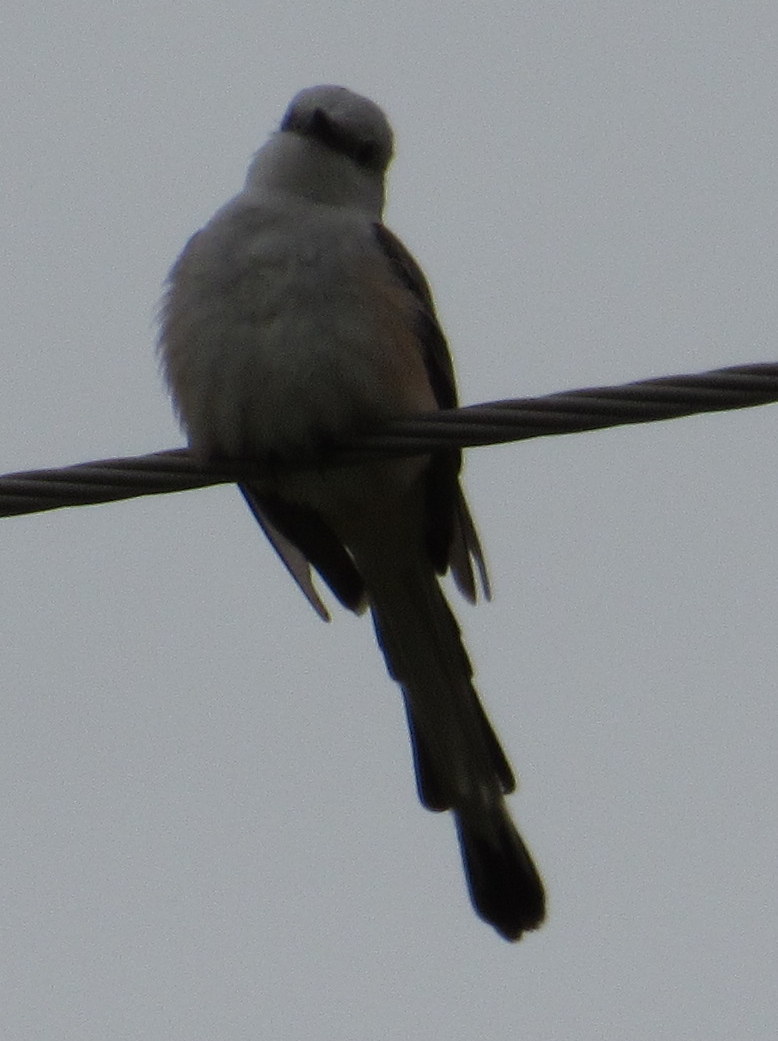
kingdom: Animalia
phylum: Chordata
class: Aves
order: Passeriformes
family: Tyrannidae
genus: Tyrannus
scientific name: Tyrannus forficatus
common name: Scissor-tailed flycatcher
